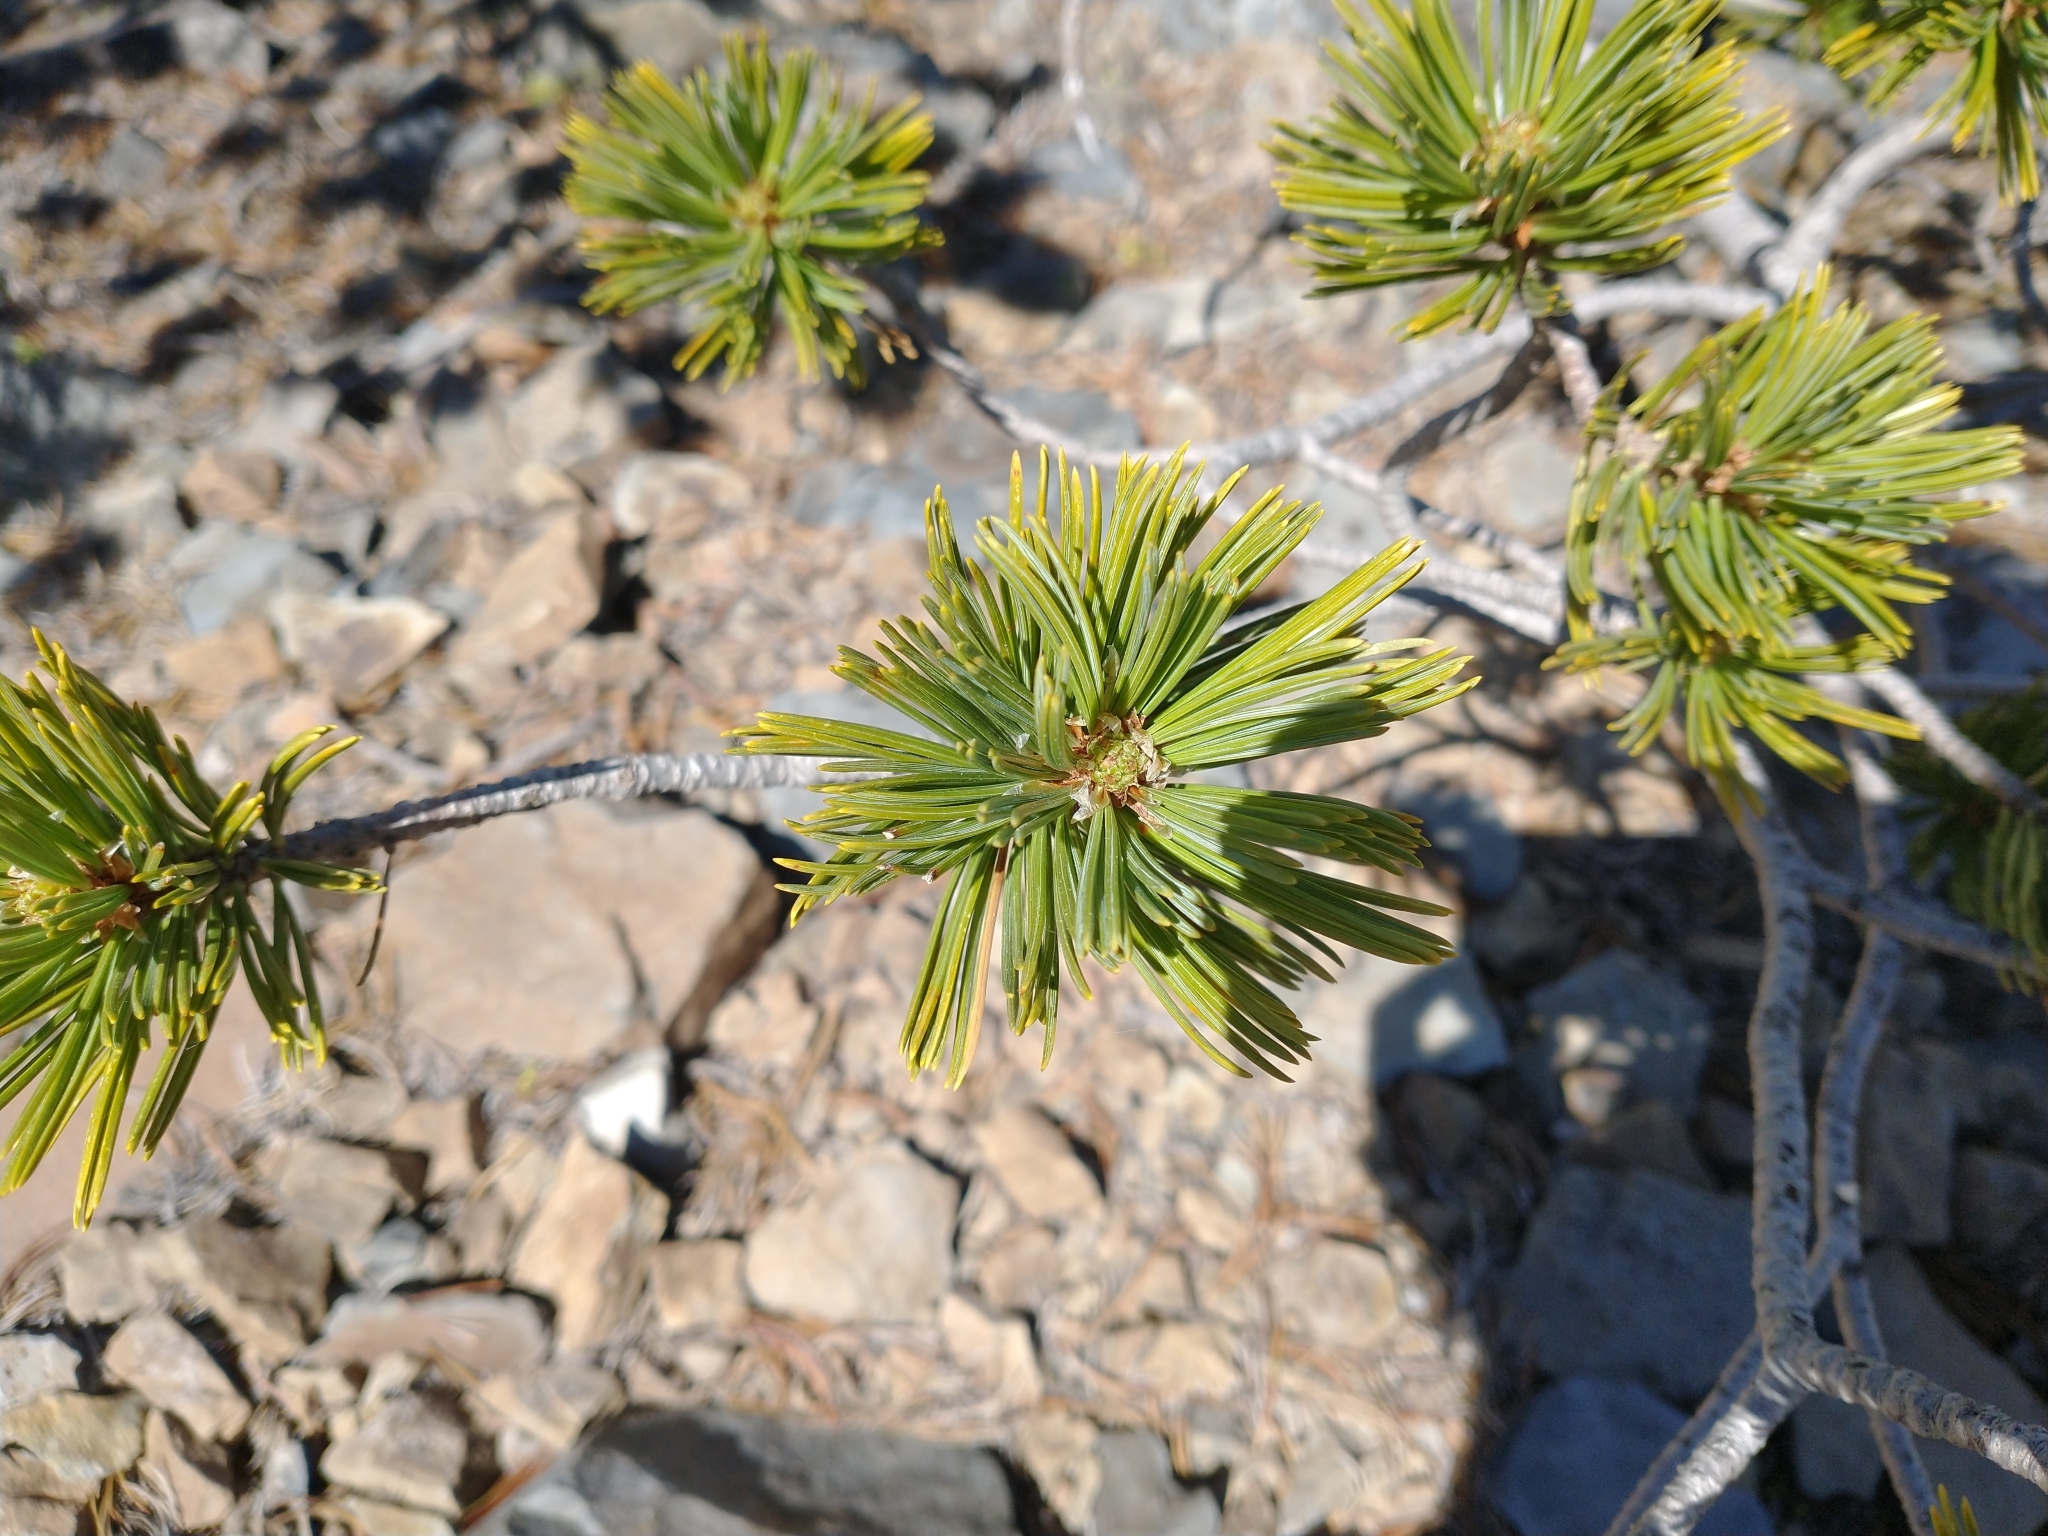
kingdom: Plantae
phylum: Tracheophyta
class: Pinopsida
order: Pinales
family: Pinaceae
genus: Pinus
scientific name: Pinus albicaulis
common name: Whitebark pine
